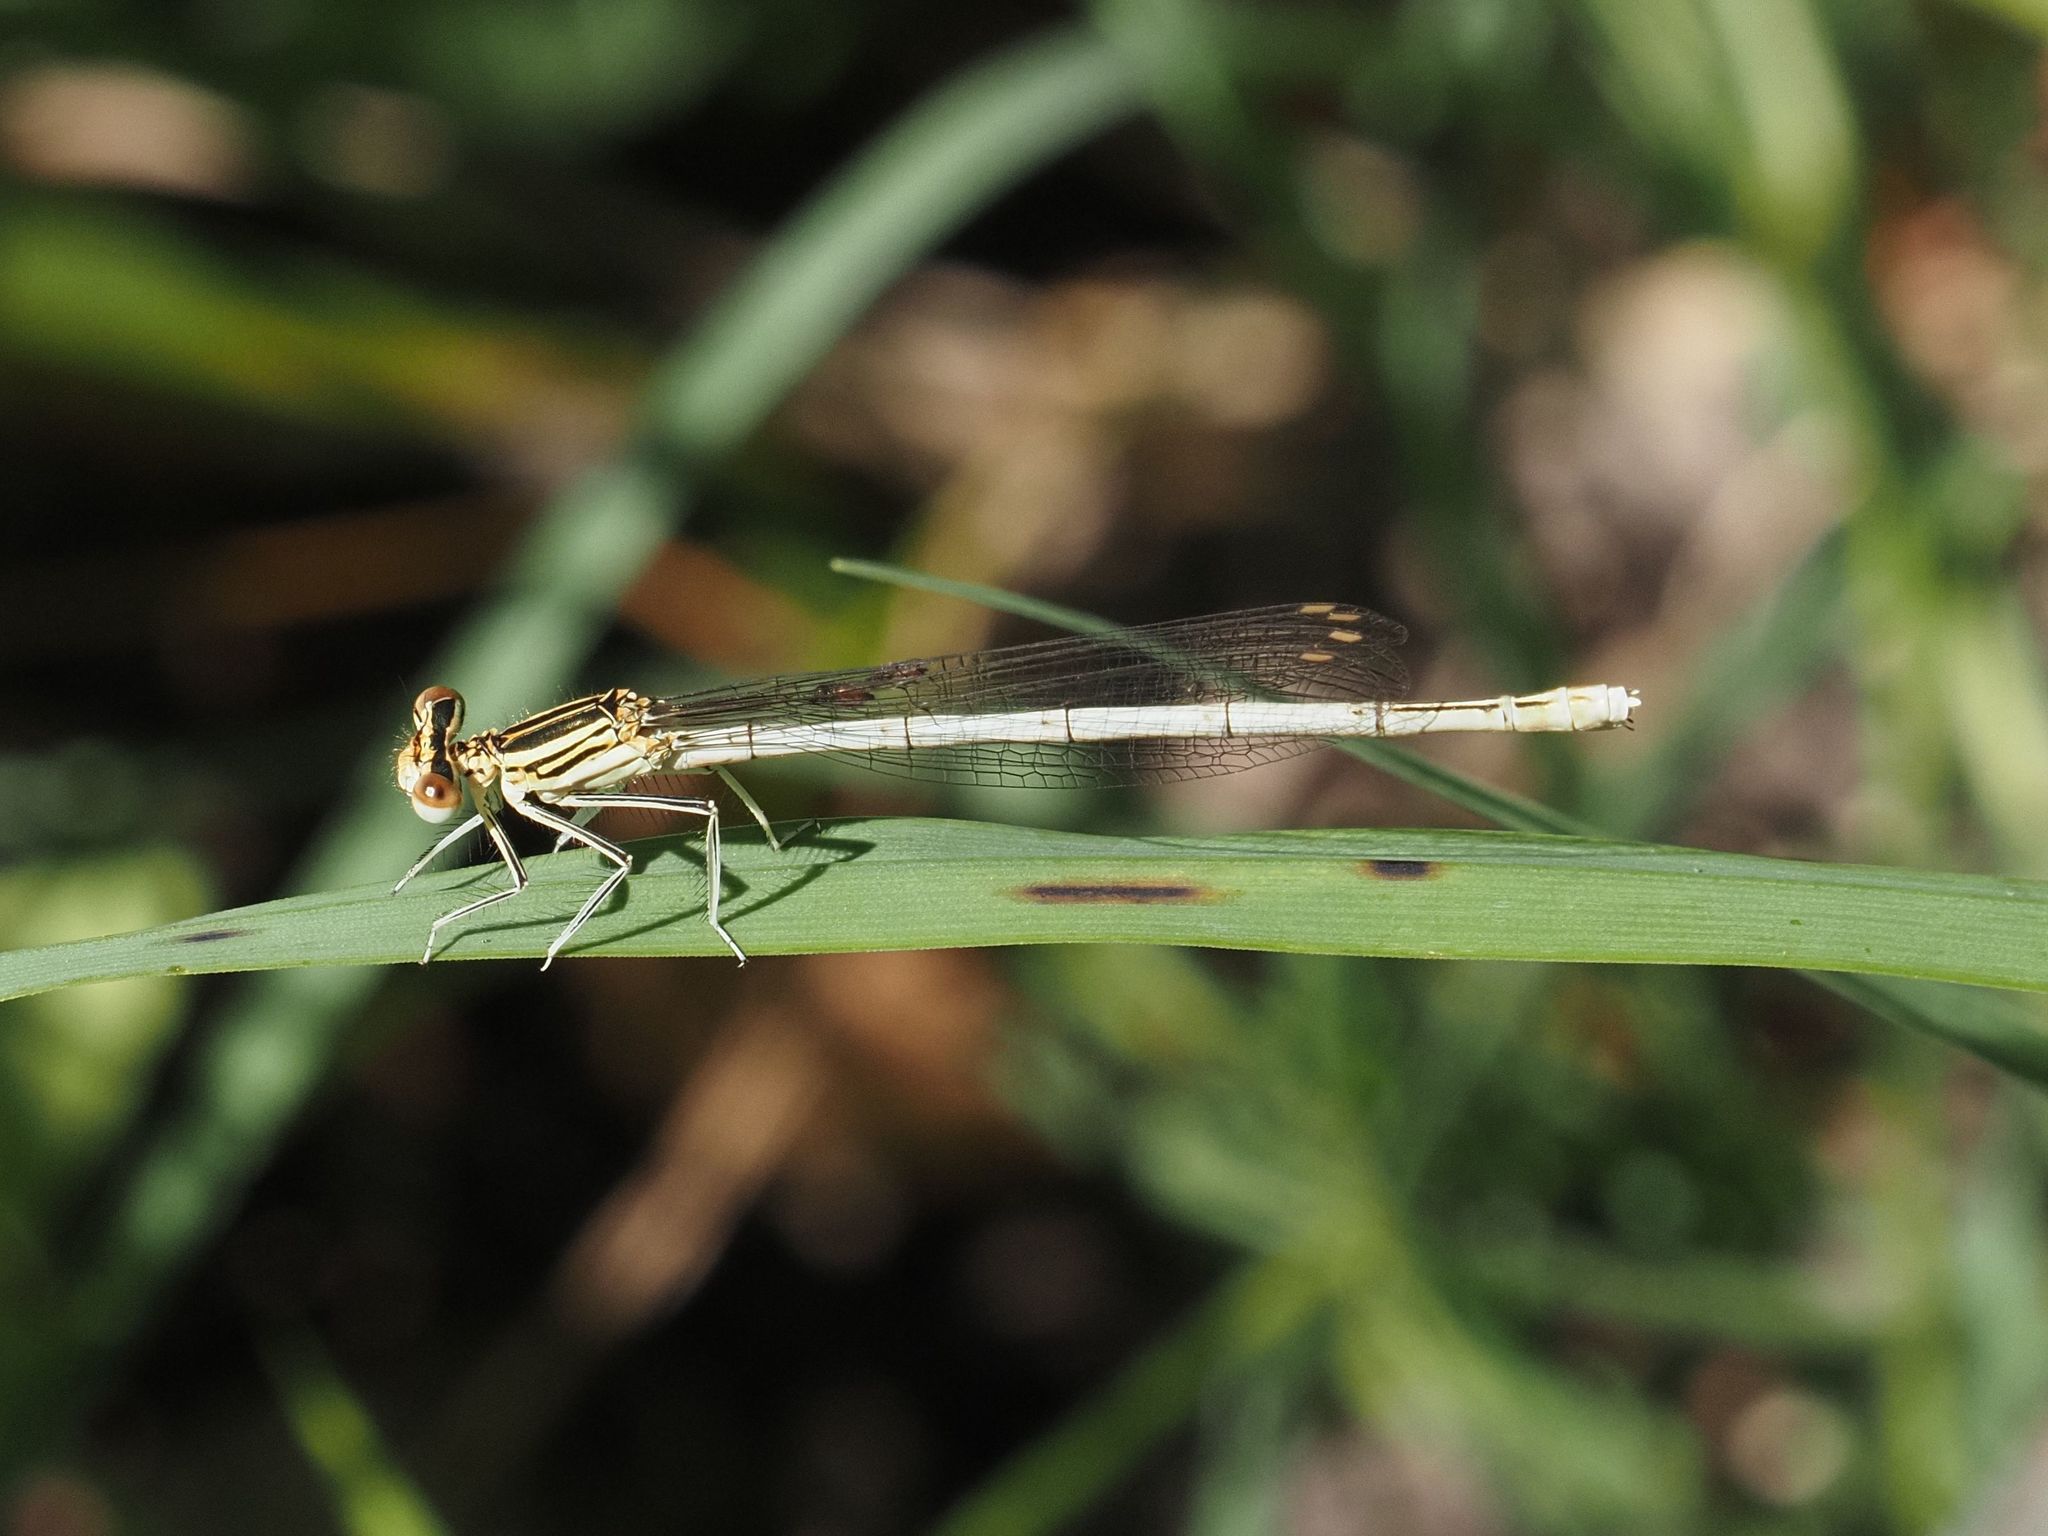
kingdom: Animalia
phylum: Arthropoda
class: Insecta
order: Odonata
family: Platycnemididae
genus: Platycnemis
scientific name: Platycnemis pennipes
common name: White-legged damselfly
